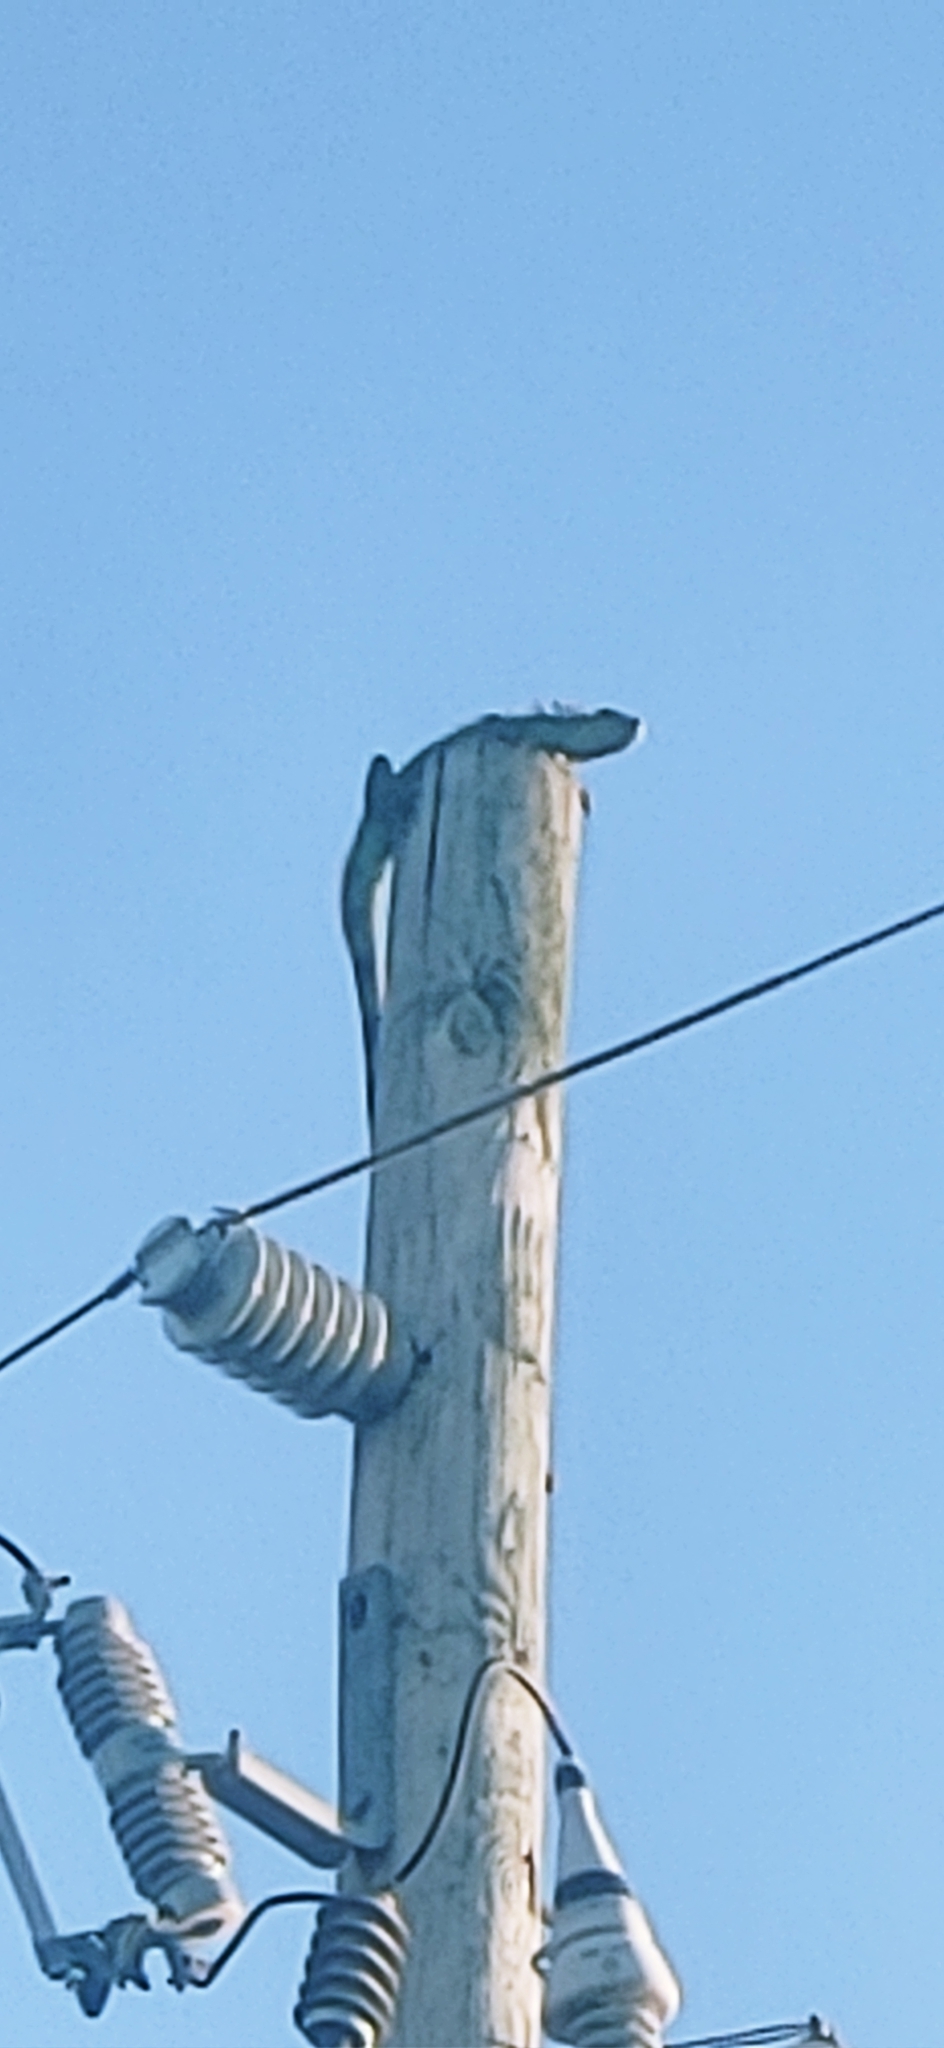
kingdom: Animalia
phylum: Chordata
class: Squamata
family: Iguanidae
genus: Iguana
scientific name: Iguana iguana
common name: Green iguana
